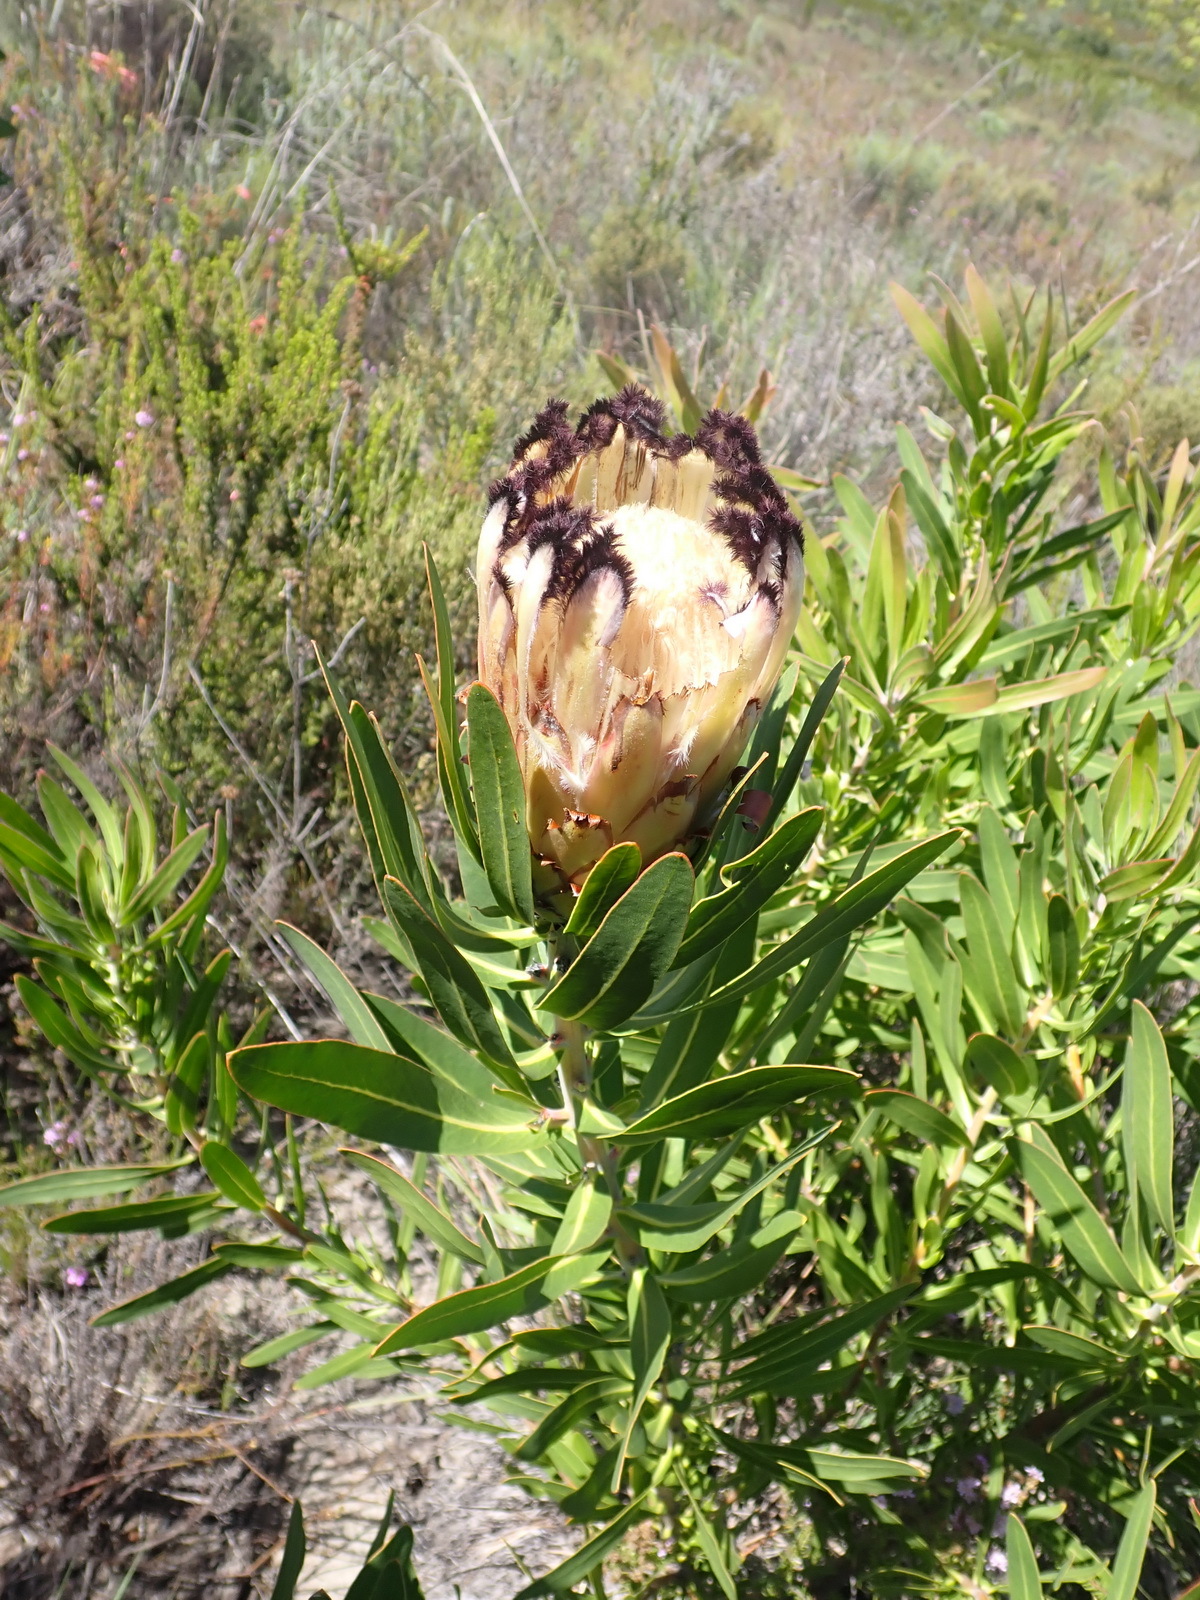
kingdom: Plantae
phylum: Tracheophyta
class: Magnoliopsida
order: Proteales
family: Proteaceae
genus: Protea
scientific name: Protea neriifolia
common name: Blue sugarbush
